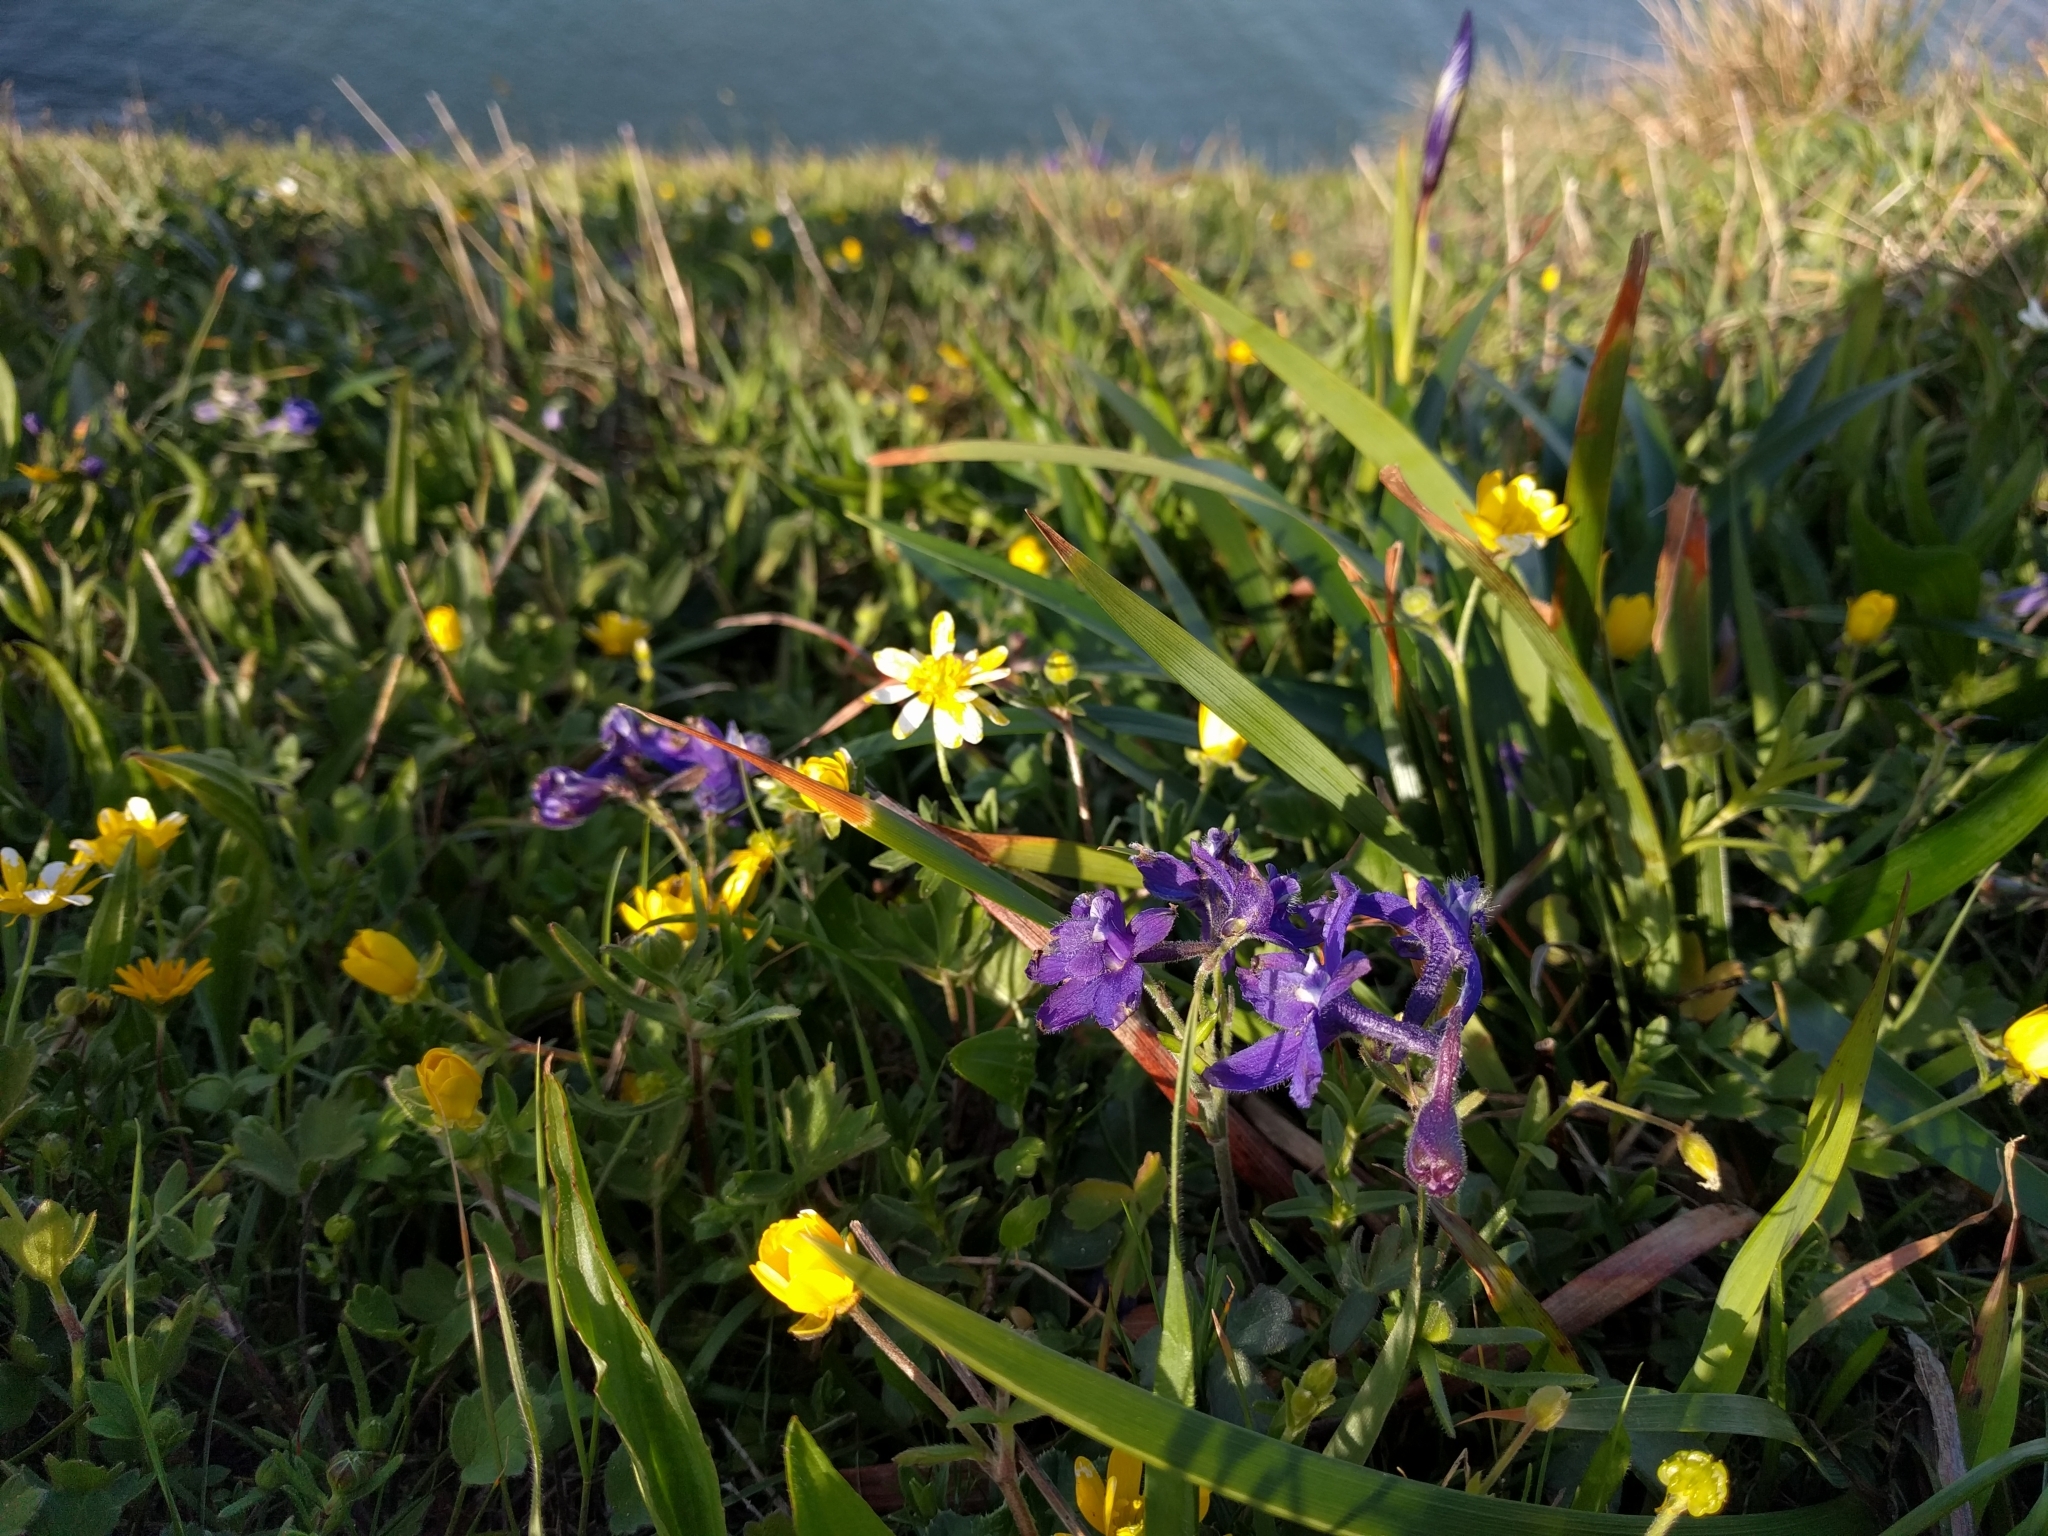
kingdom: Plantae
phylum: Tracheophyta
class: Magnoliopsida
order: Ranunculales
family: Ranunculaceae
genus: Delphinium
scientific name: Delphinium decorum
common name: Coast larkspur
